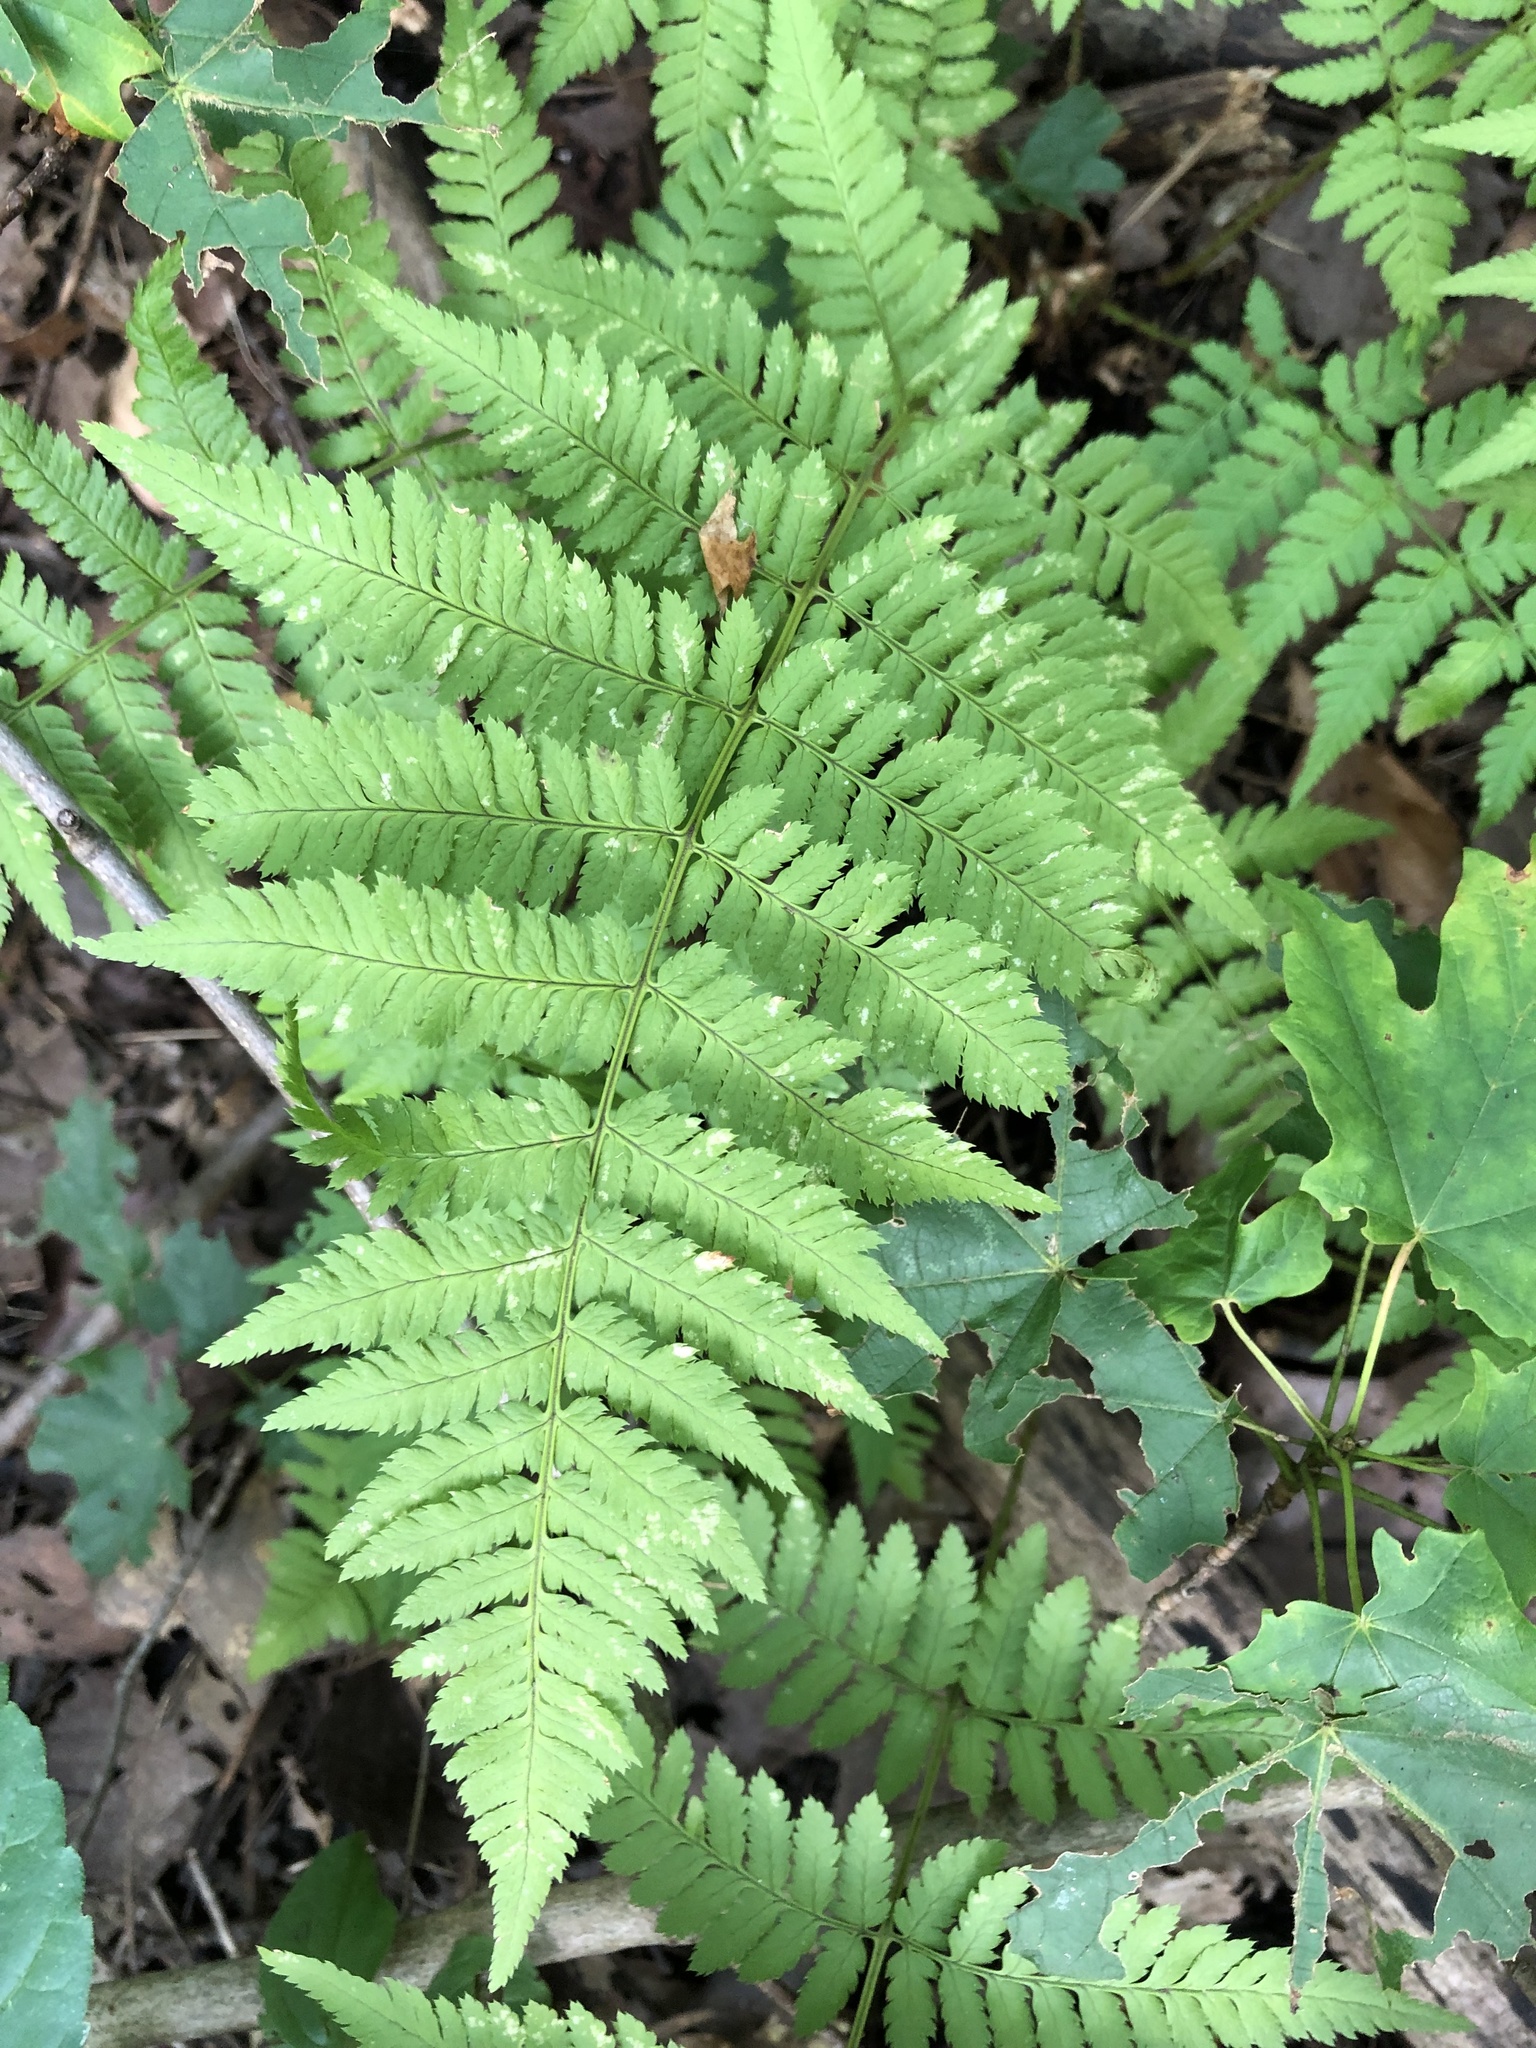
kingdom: Plantae
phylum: Tracheophyta
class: Polypodiopsida
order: Polypodiales
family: Dryopteridaceae
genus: Dryopteris
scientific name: Dryopteris carthusiana
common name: Narrow buckler-fern
